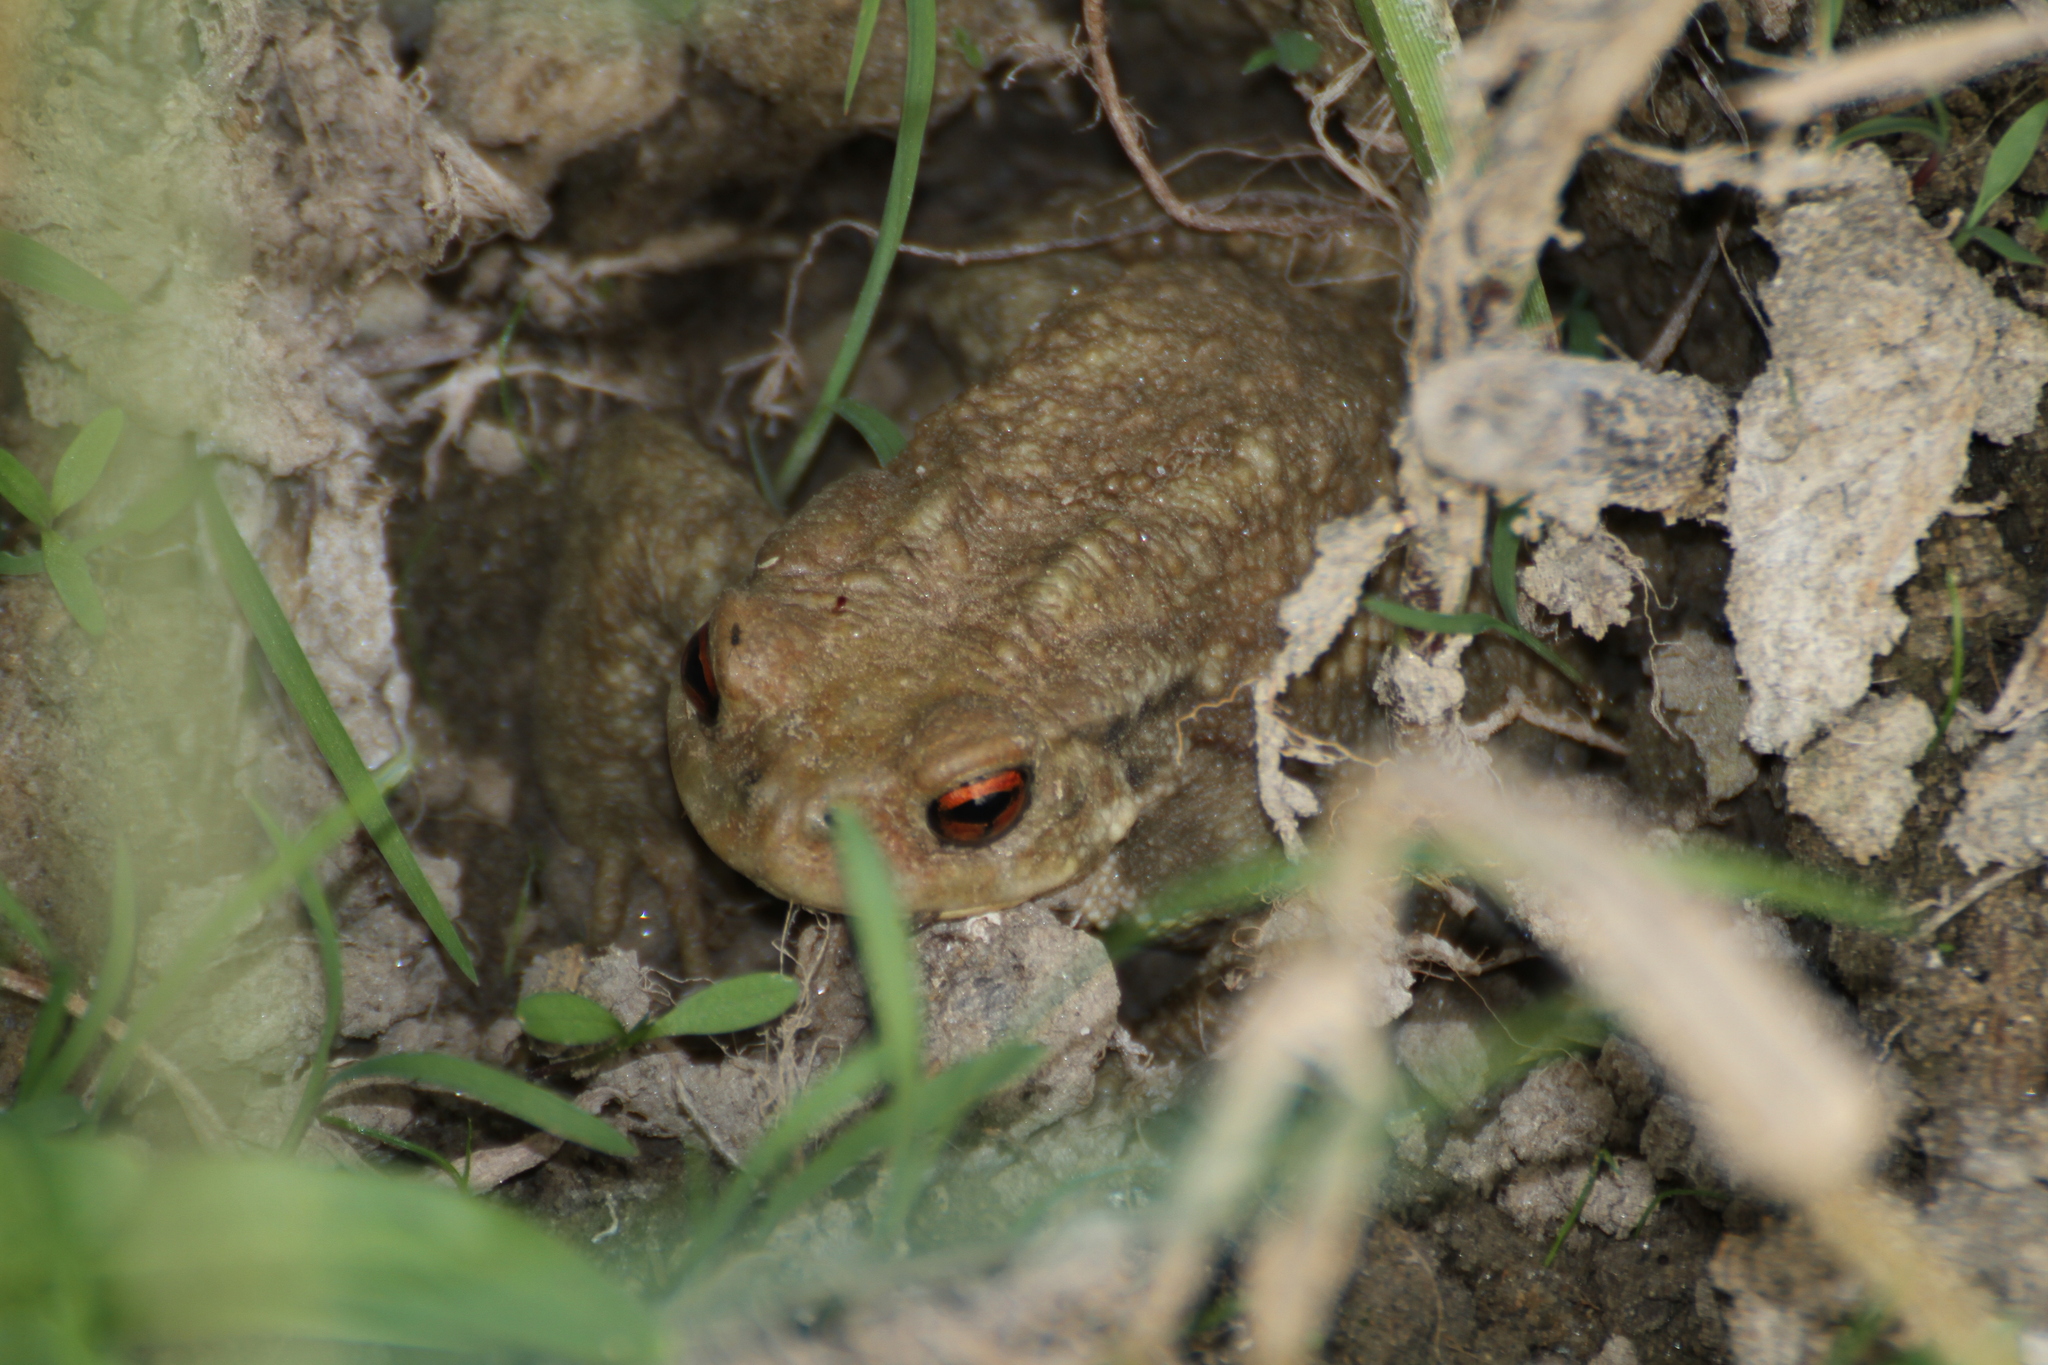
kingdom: Animalia
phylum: Chordata
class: Amphibia
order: Anura
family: Bufonidae
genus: Bufo
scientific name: Bufo spinosus
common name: Western common toad
